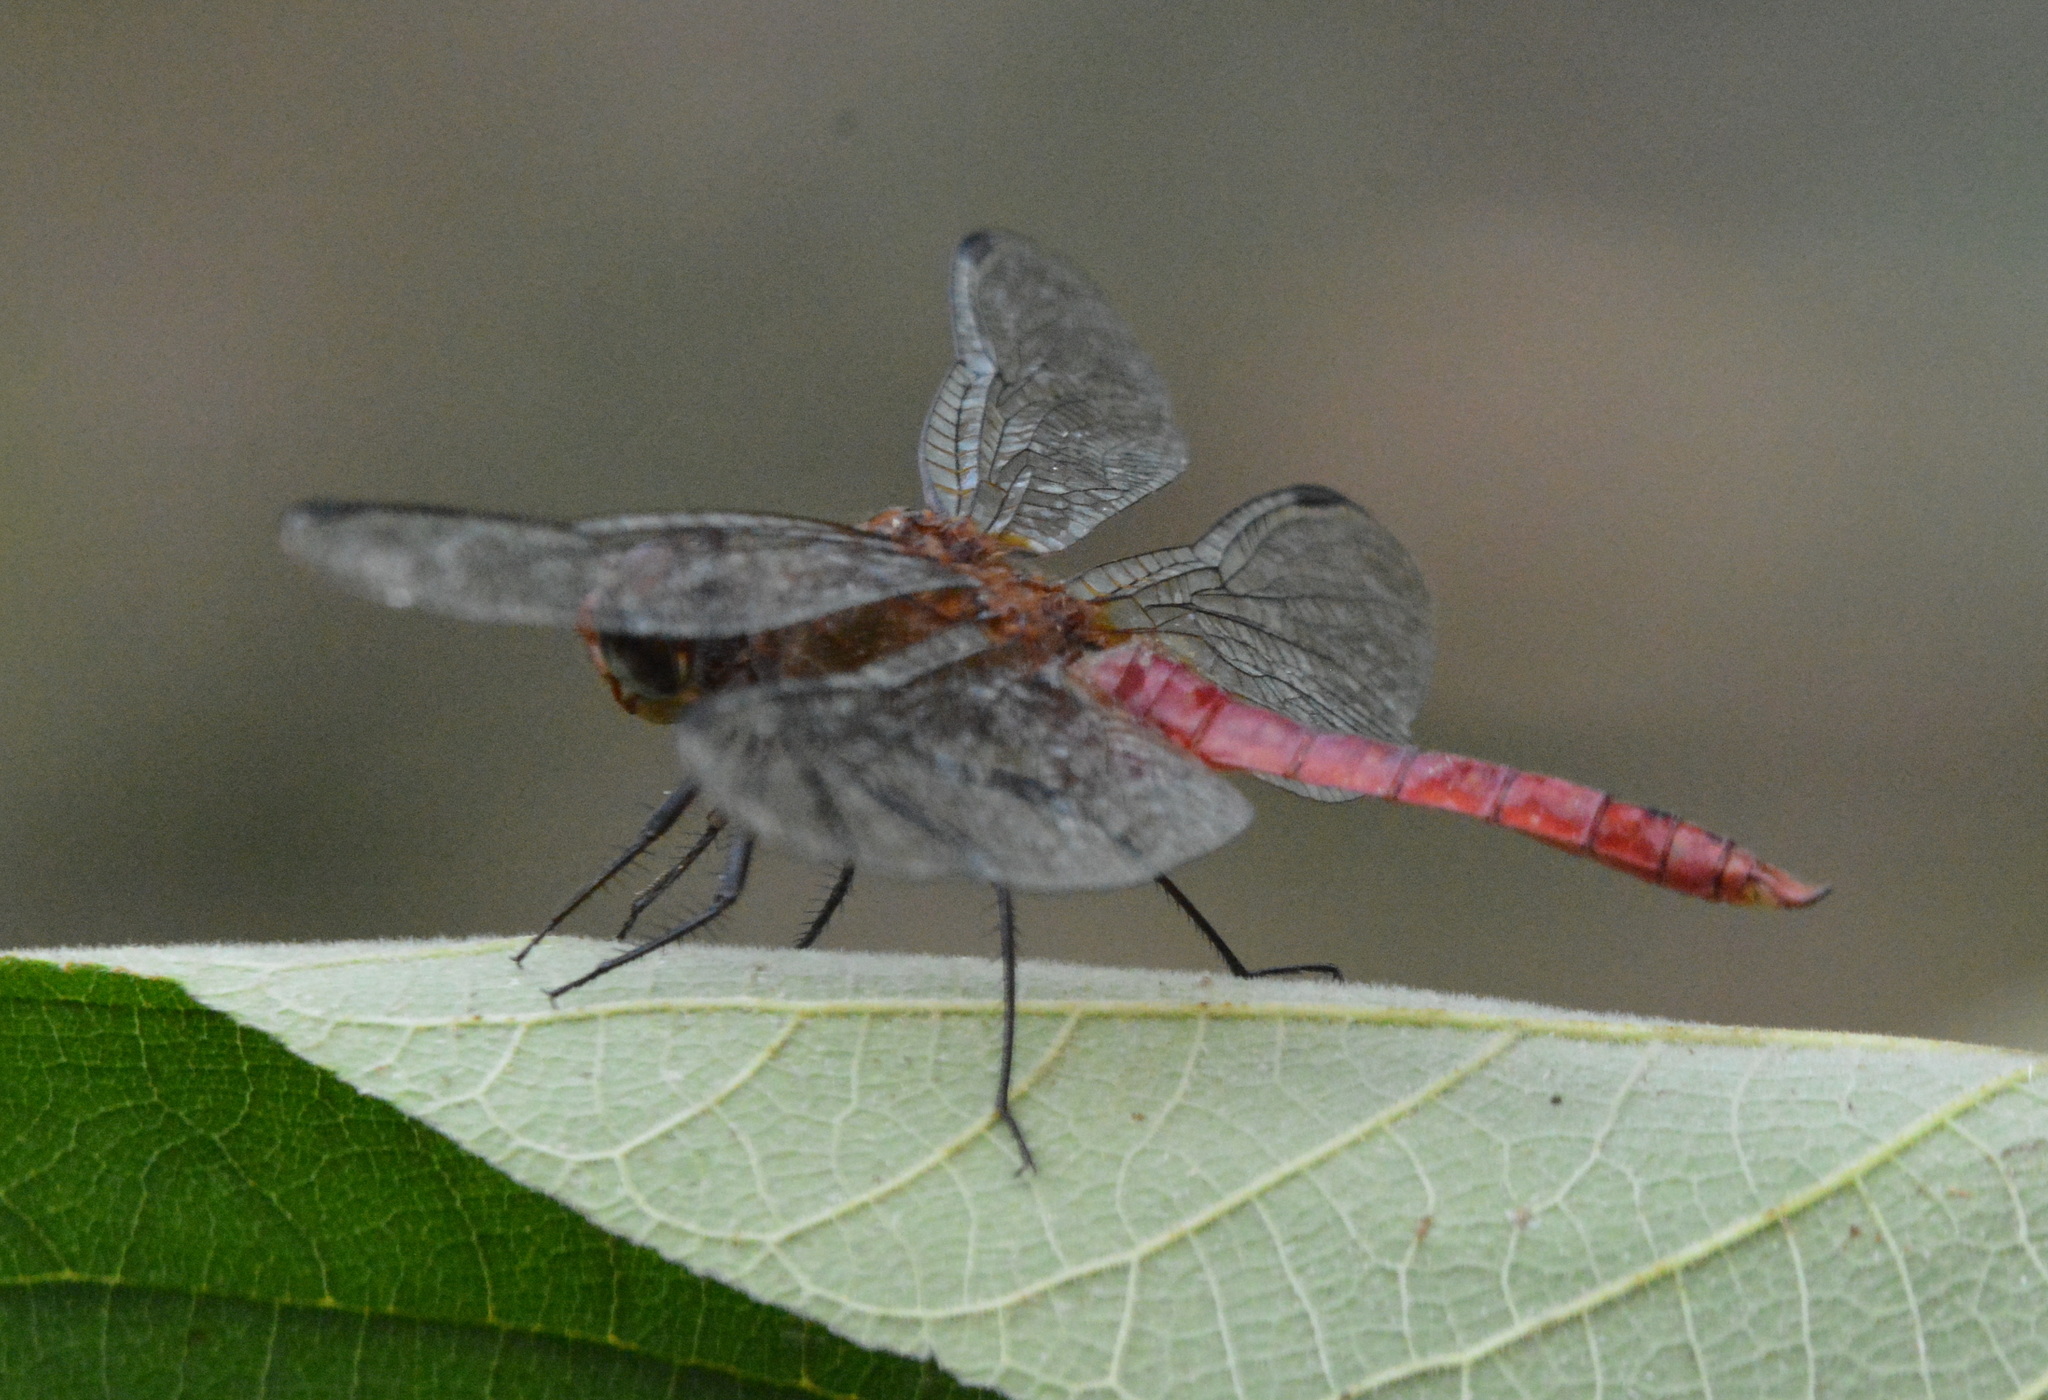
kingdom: Animalia
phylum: Arthropoda
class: Insecta
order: Odonata
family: Libellulidae
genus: Brachymesia
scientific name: Brachymesia furcata
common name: Red-taled pennant
